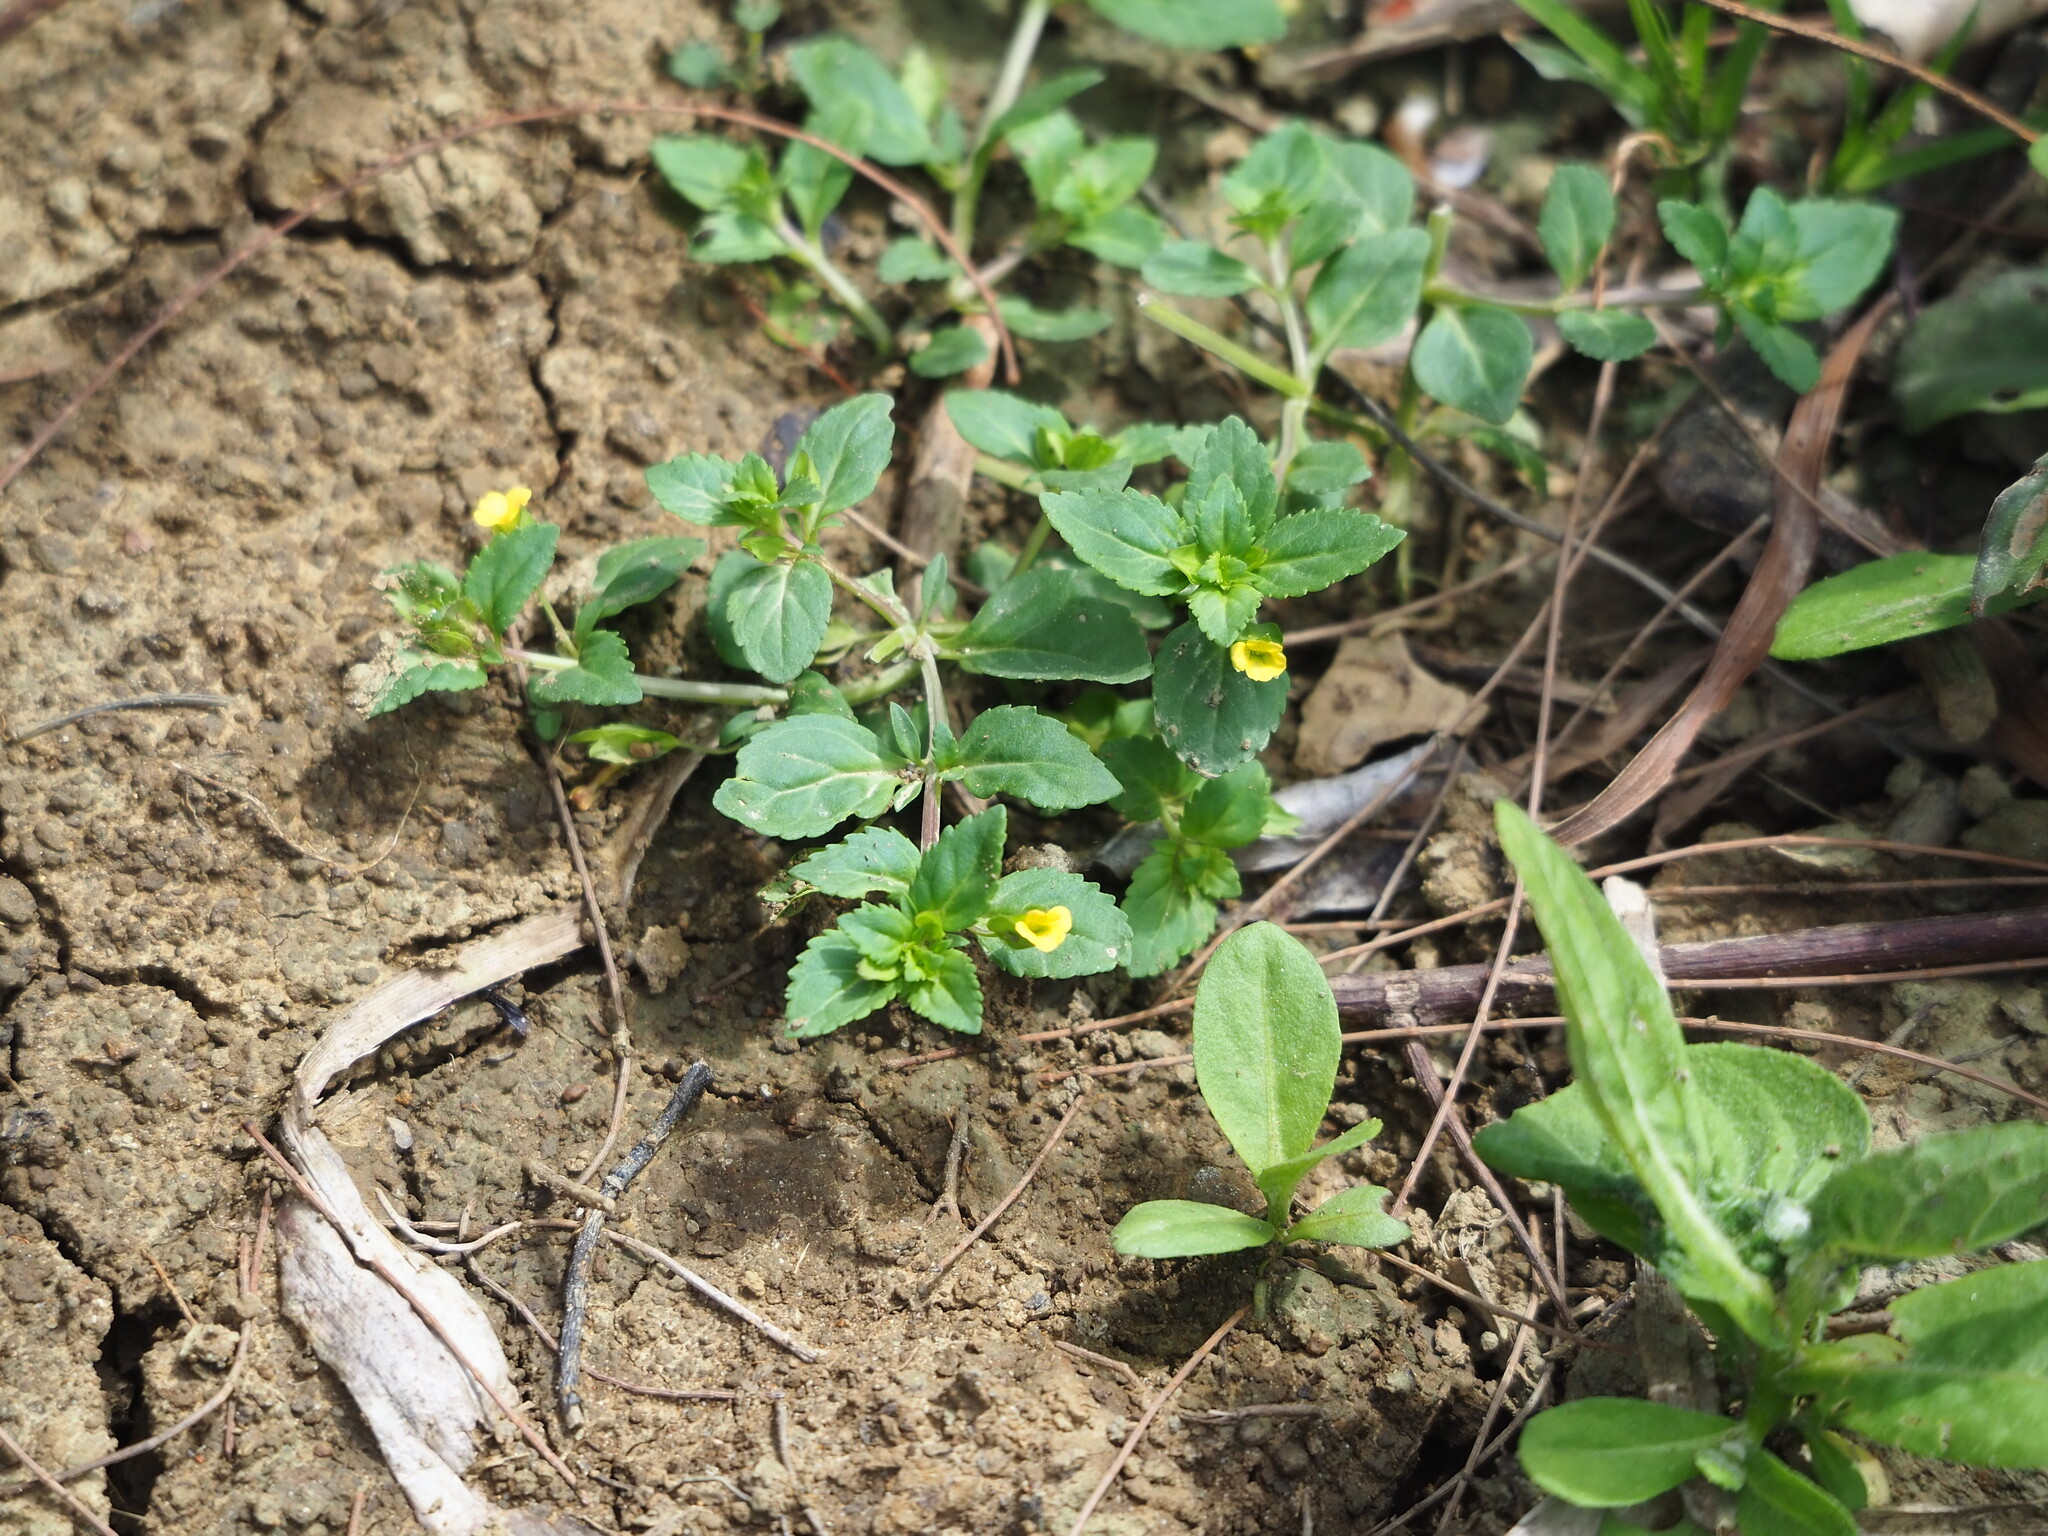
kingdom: Plantae
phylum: Tracheophyta
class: Magnoliopsida
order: Lamiales
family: Plantaginaceae
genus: Mecardonia
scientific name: Mecardonia procumbens
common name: Baby jump-up
